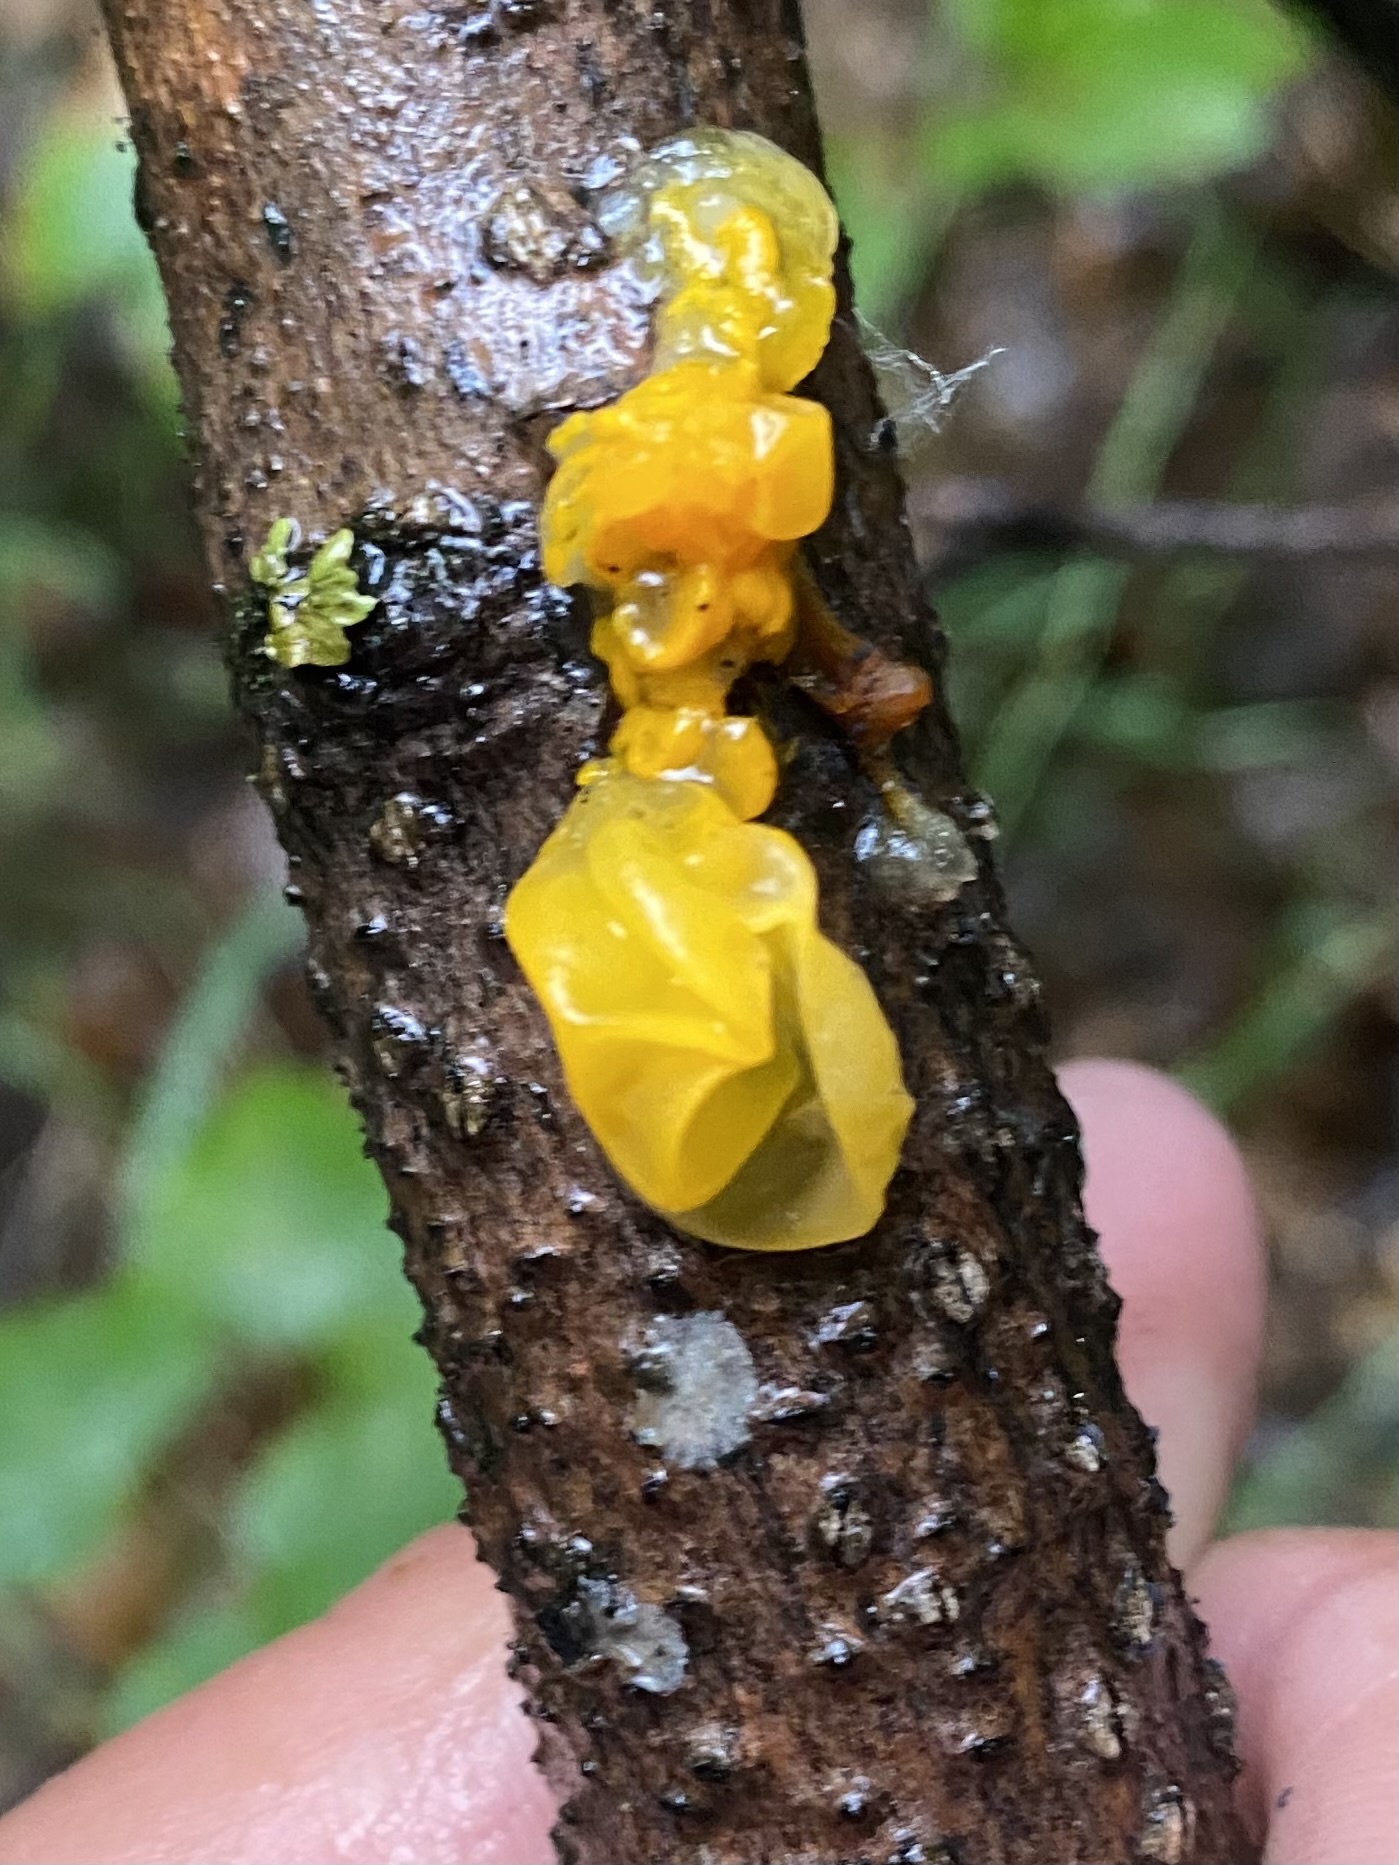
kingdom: Fungi
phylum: Basidiomycota
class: Tremellomycetes
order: Tremellales
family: Tremellaceae
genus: Tremella
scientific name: Tremella mesenterica
